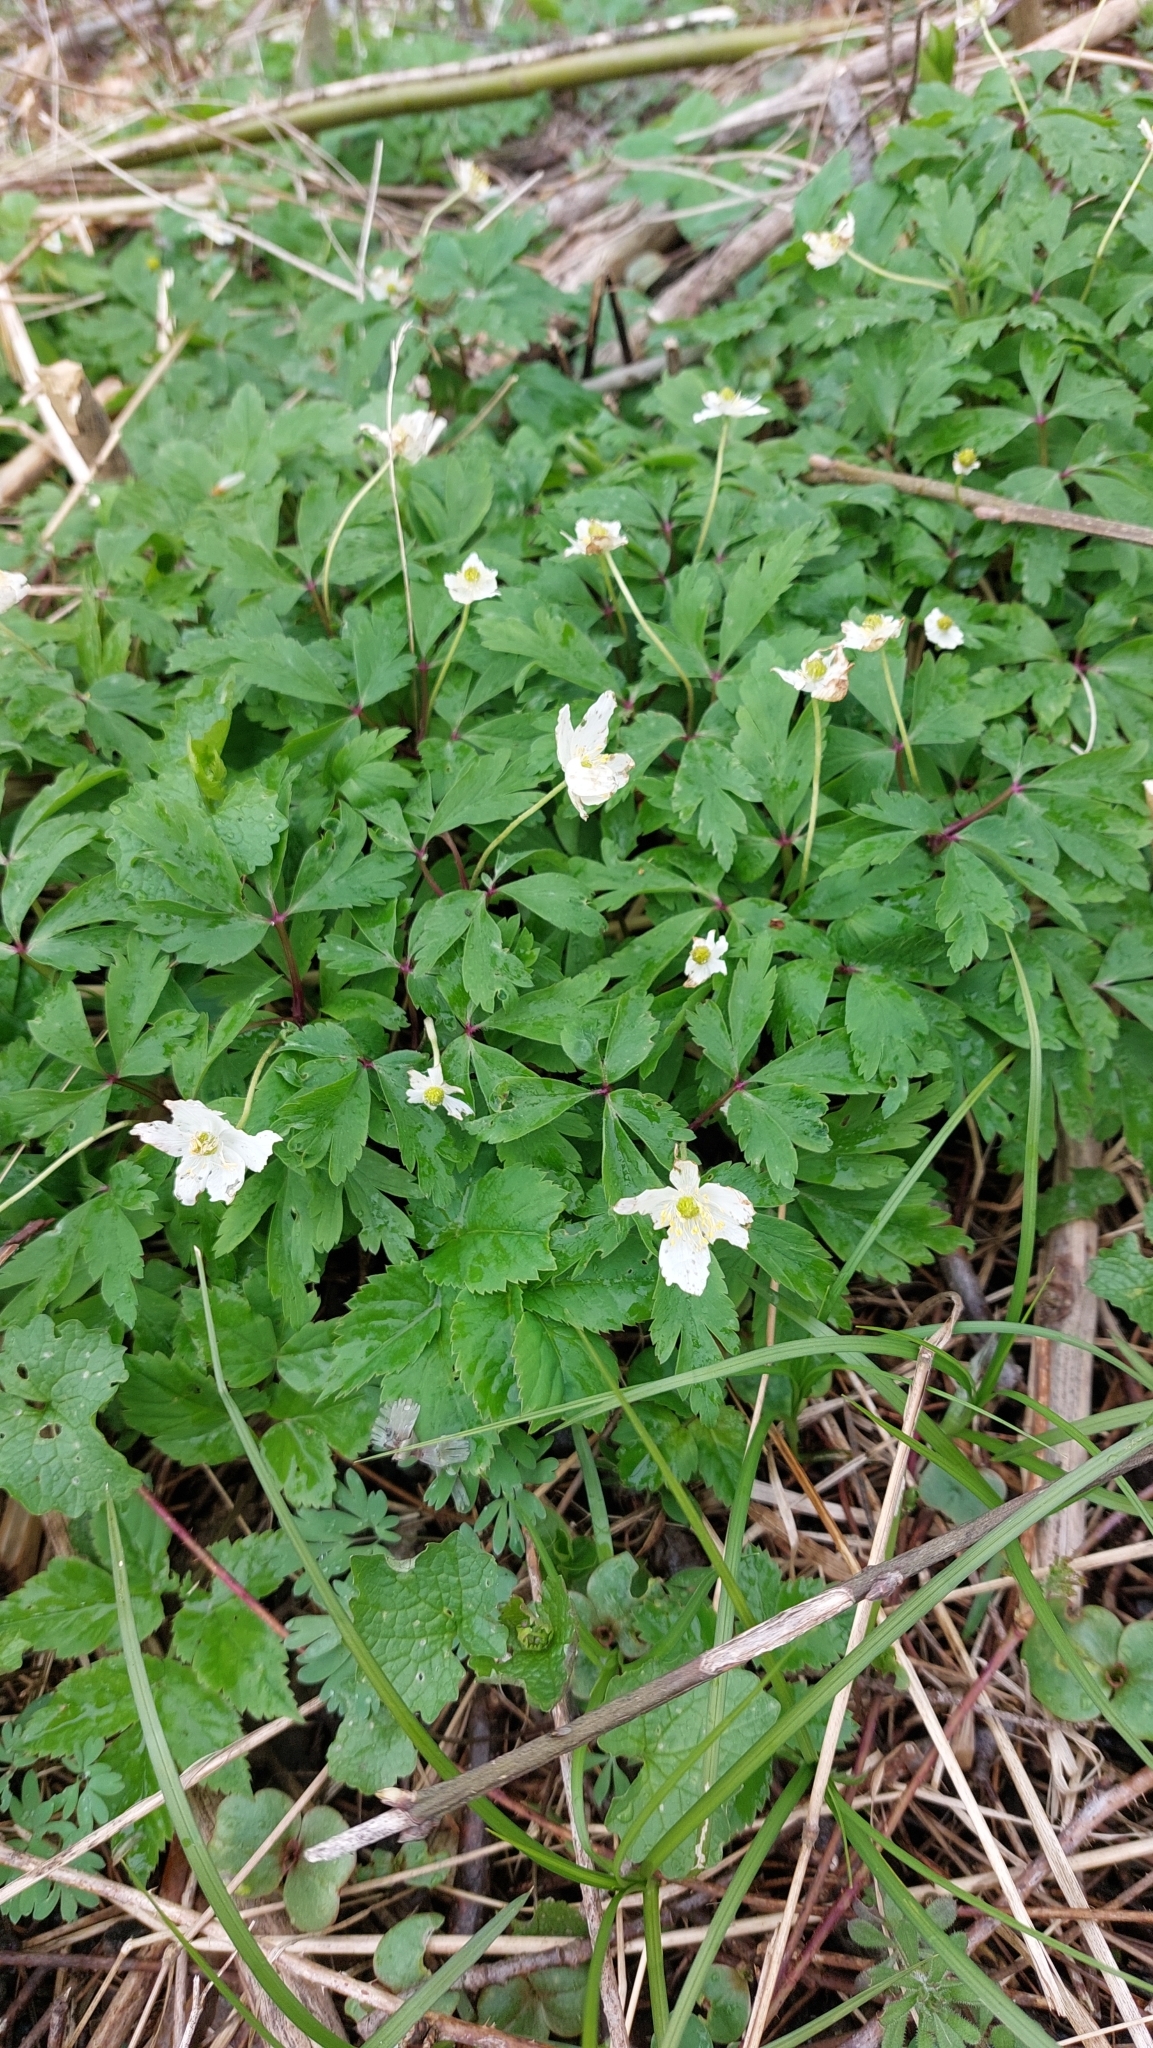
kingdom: Plantae
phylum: Tracheophyta
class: Magnoliopsida
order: Ranunculales
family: Ranunculaceae
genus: Anemone
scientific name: Anemone nemorosa
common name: Wood anemone
